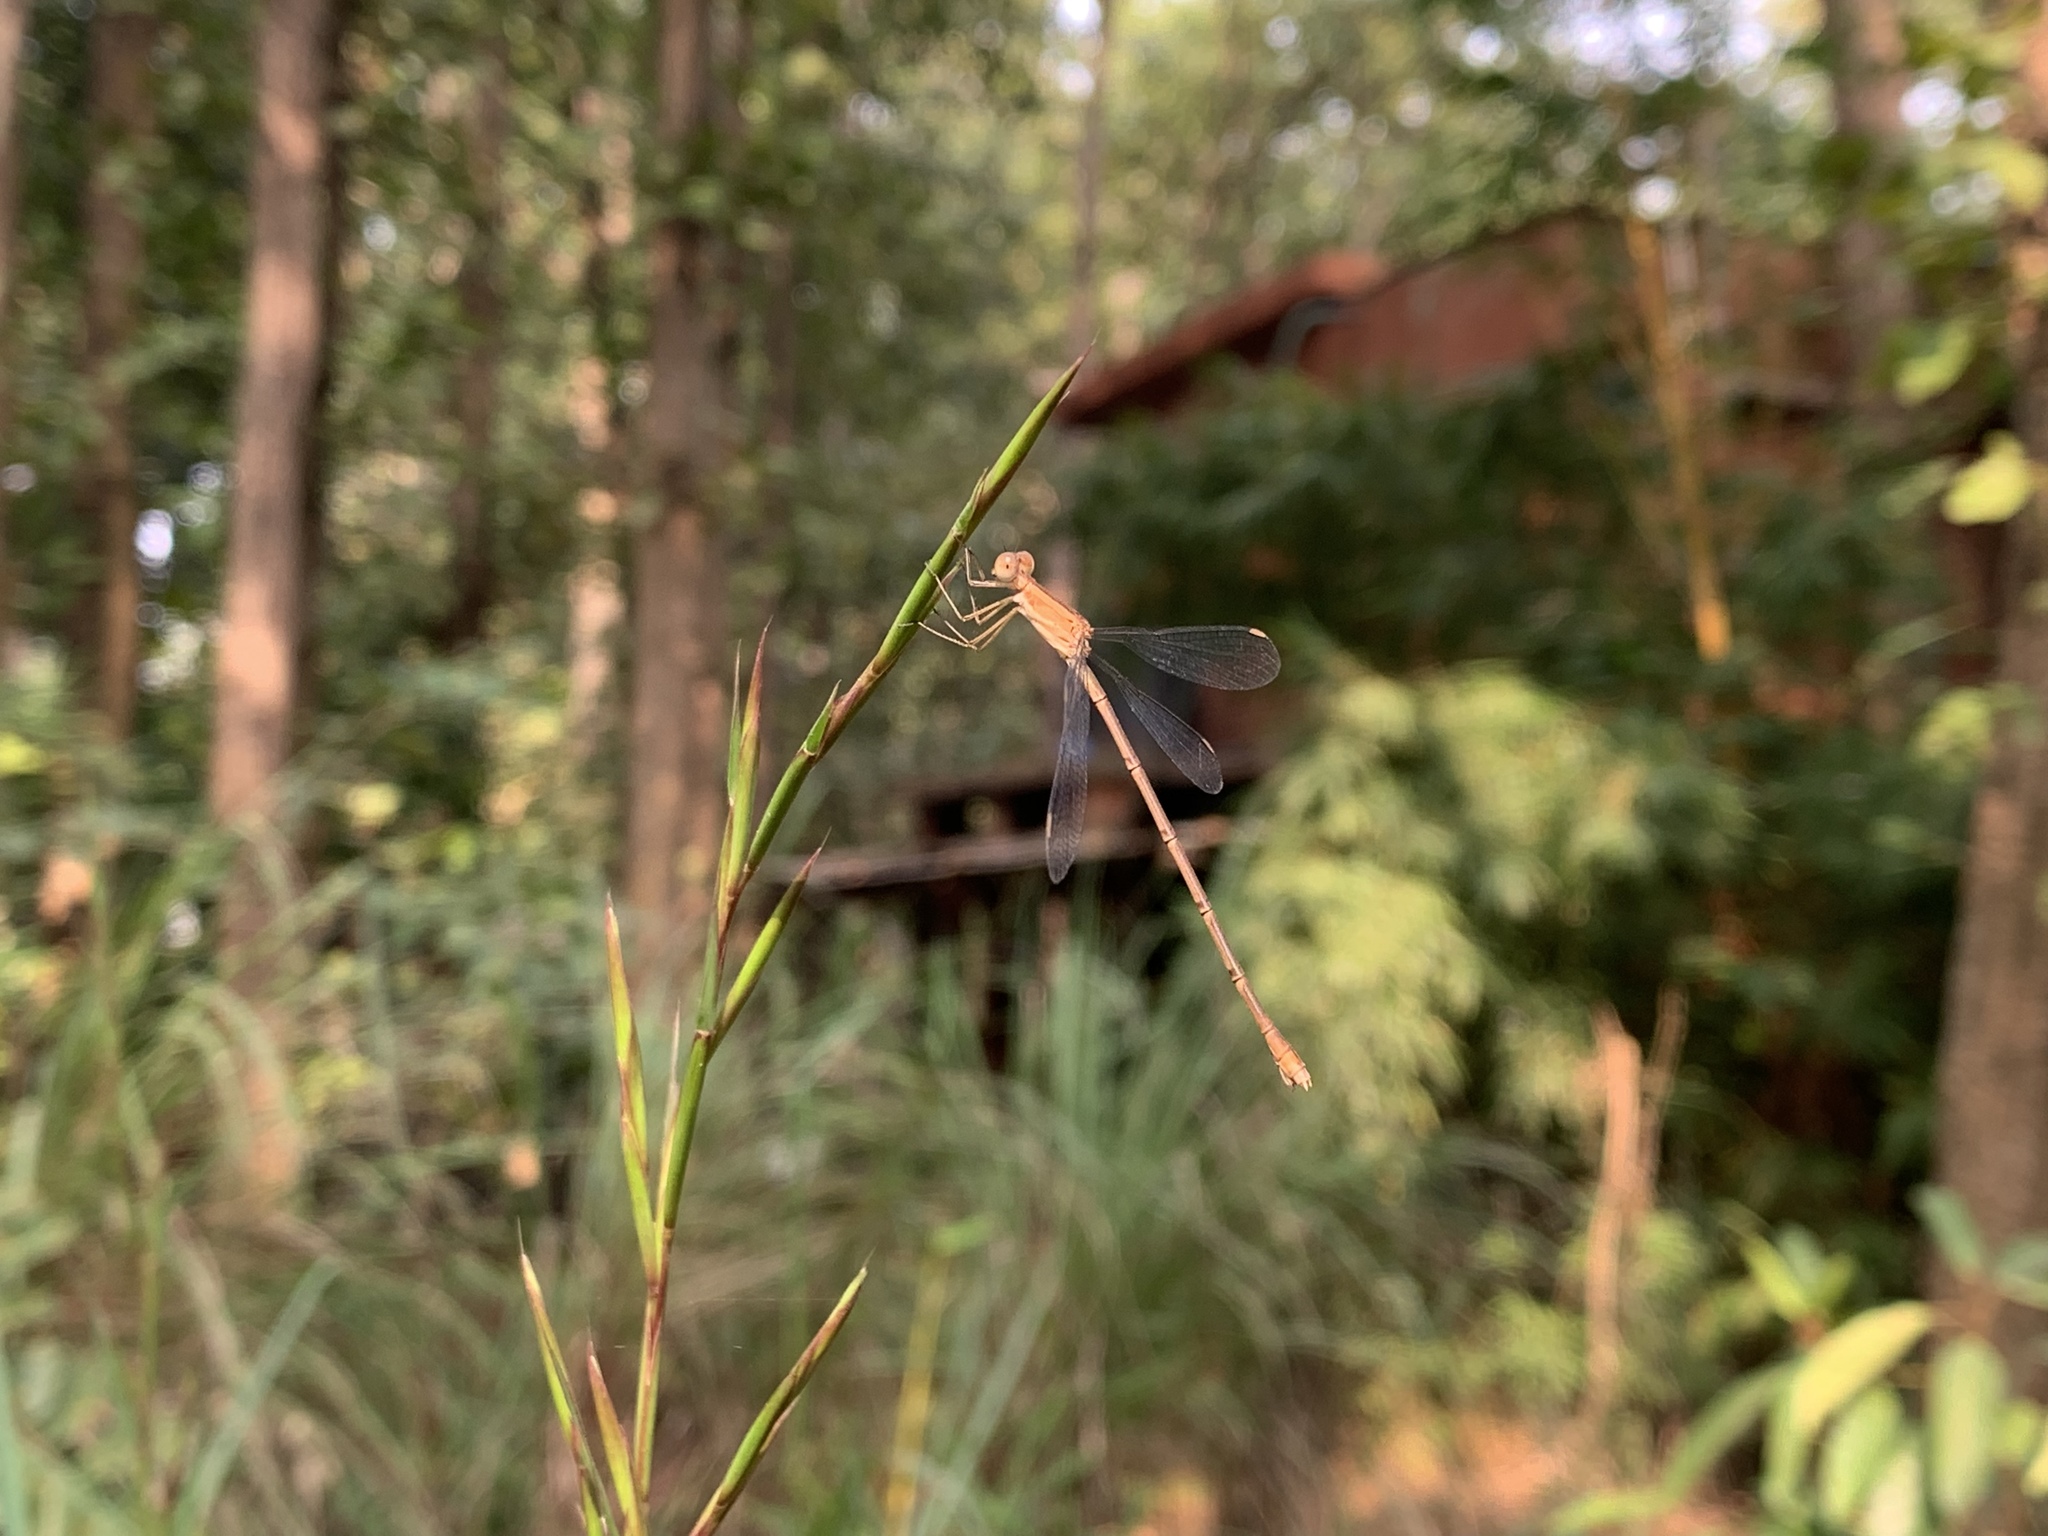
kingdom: Animalia
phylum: Arthropoda
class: Insecta
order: Odonata
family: Lestidae
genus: Lestes
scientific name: Lestes concinnus
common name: Dusky spreadwing
